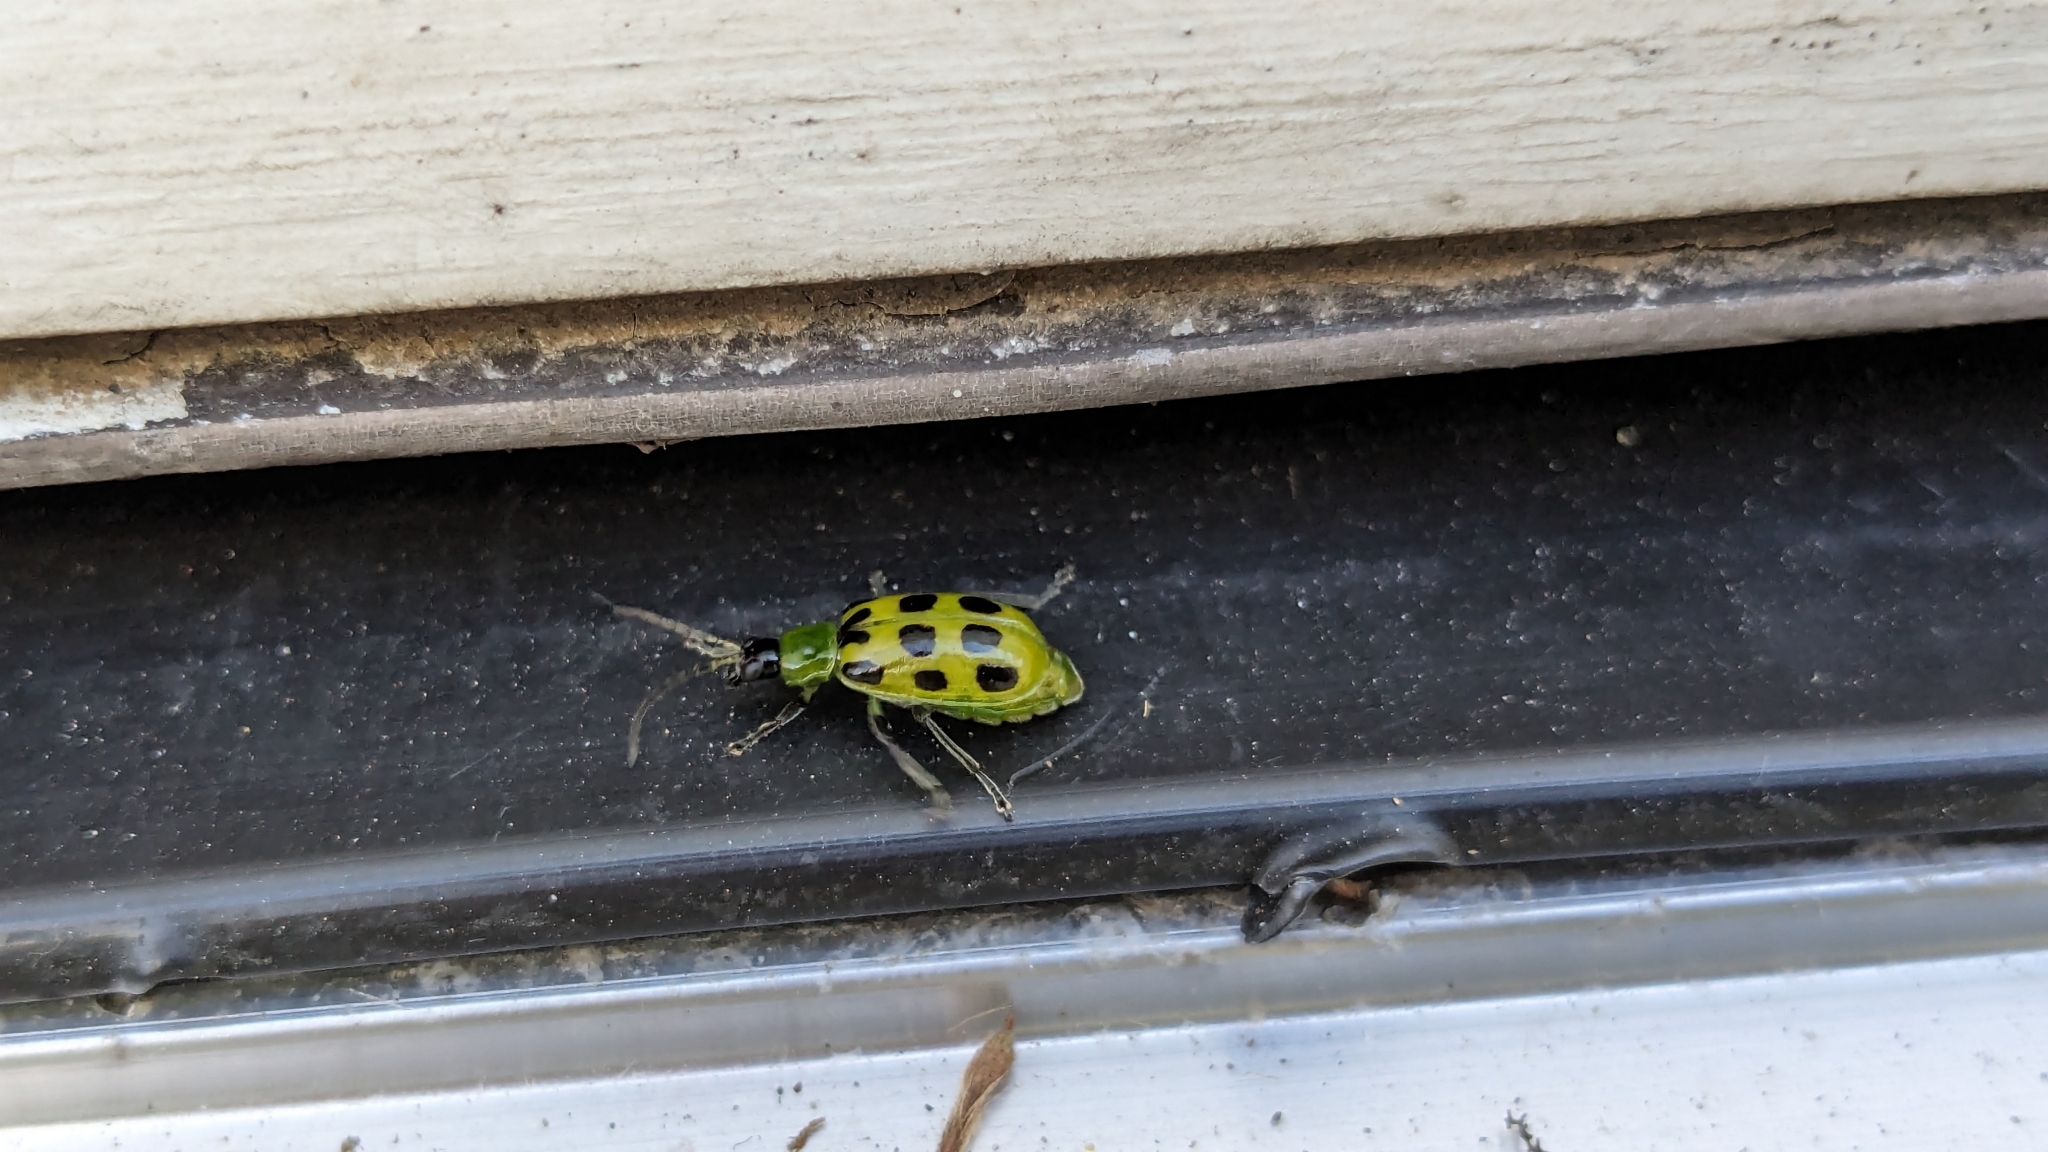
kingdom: Animalia
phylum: Arthropoda
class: Insecta
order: Coleoptera
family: Chrysomelidae
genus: Diabrotica
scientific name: Diabrotica undecimpunctata
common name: Spotted cucumber beetle
